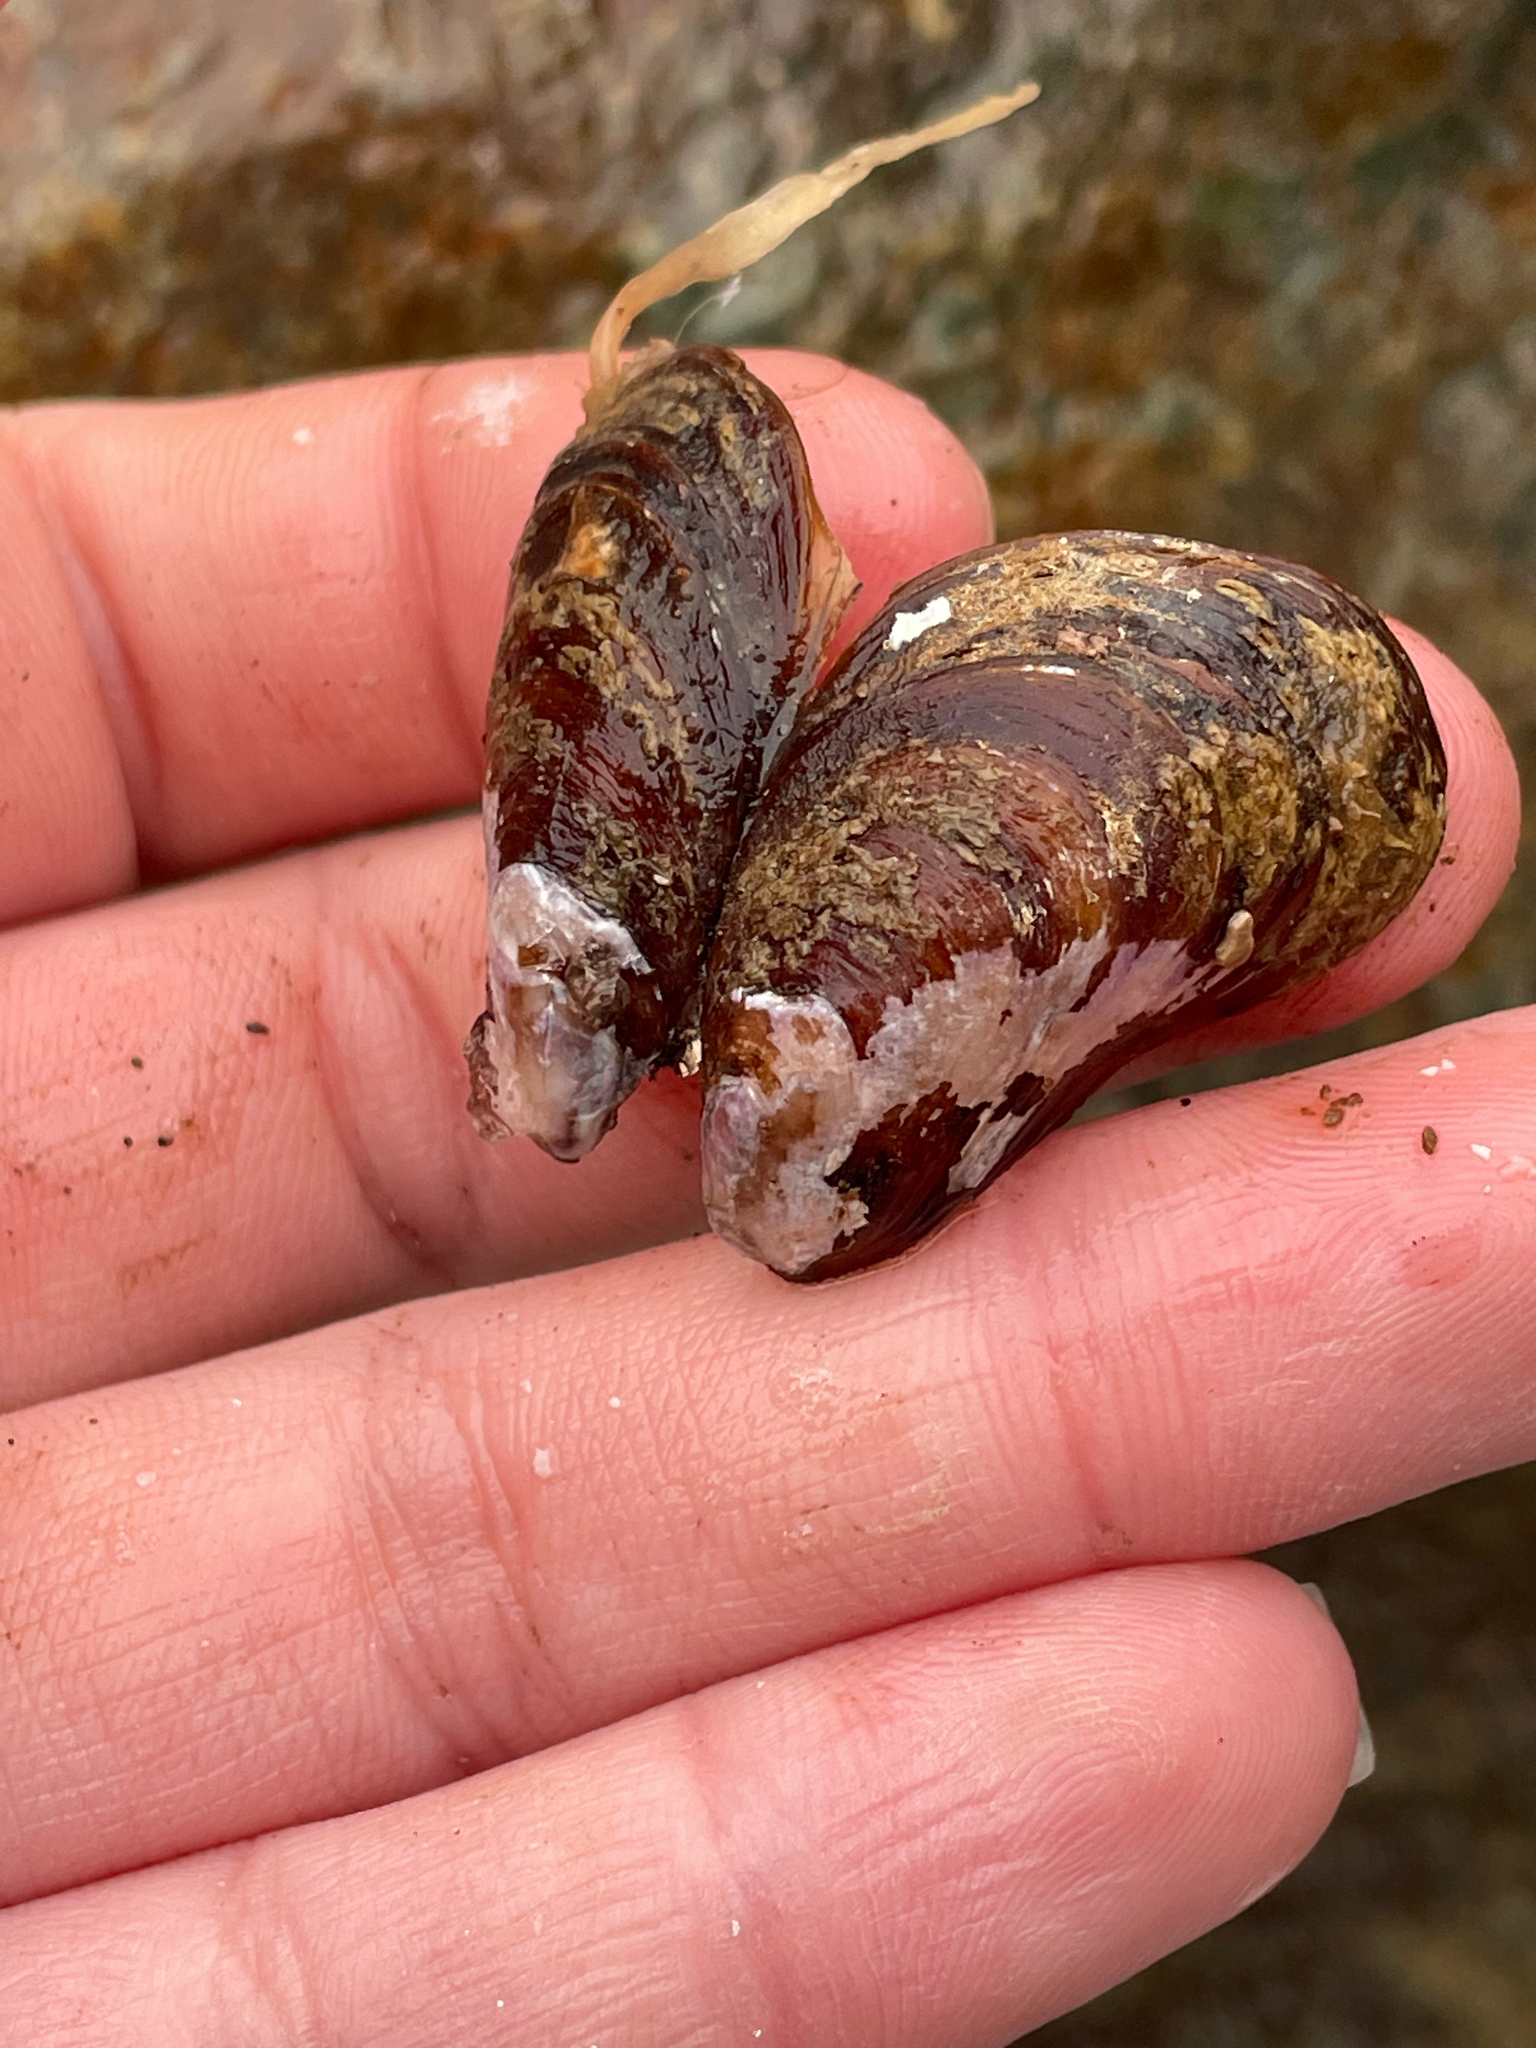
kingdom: Animalia
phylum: Mollusca
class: Bivalvia
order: Mytilida
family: Mytilidae
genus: Modiolus
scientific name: Modiolus modiolus
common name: Horse-mussel
